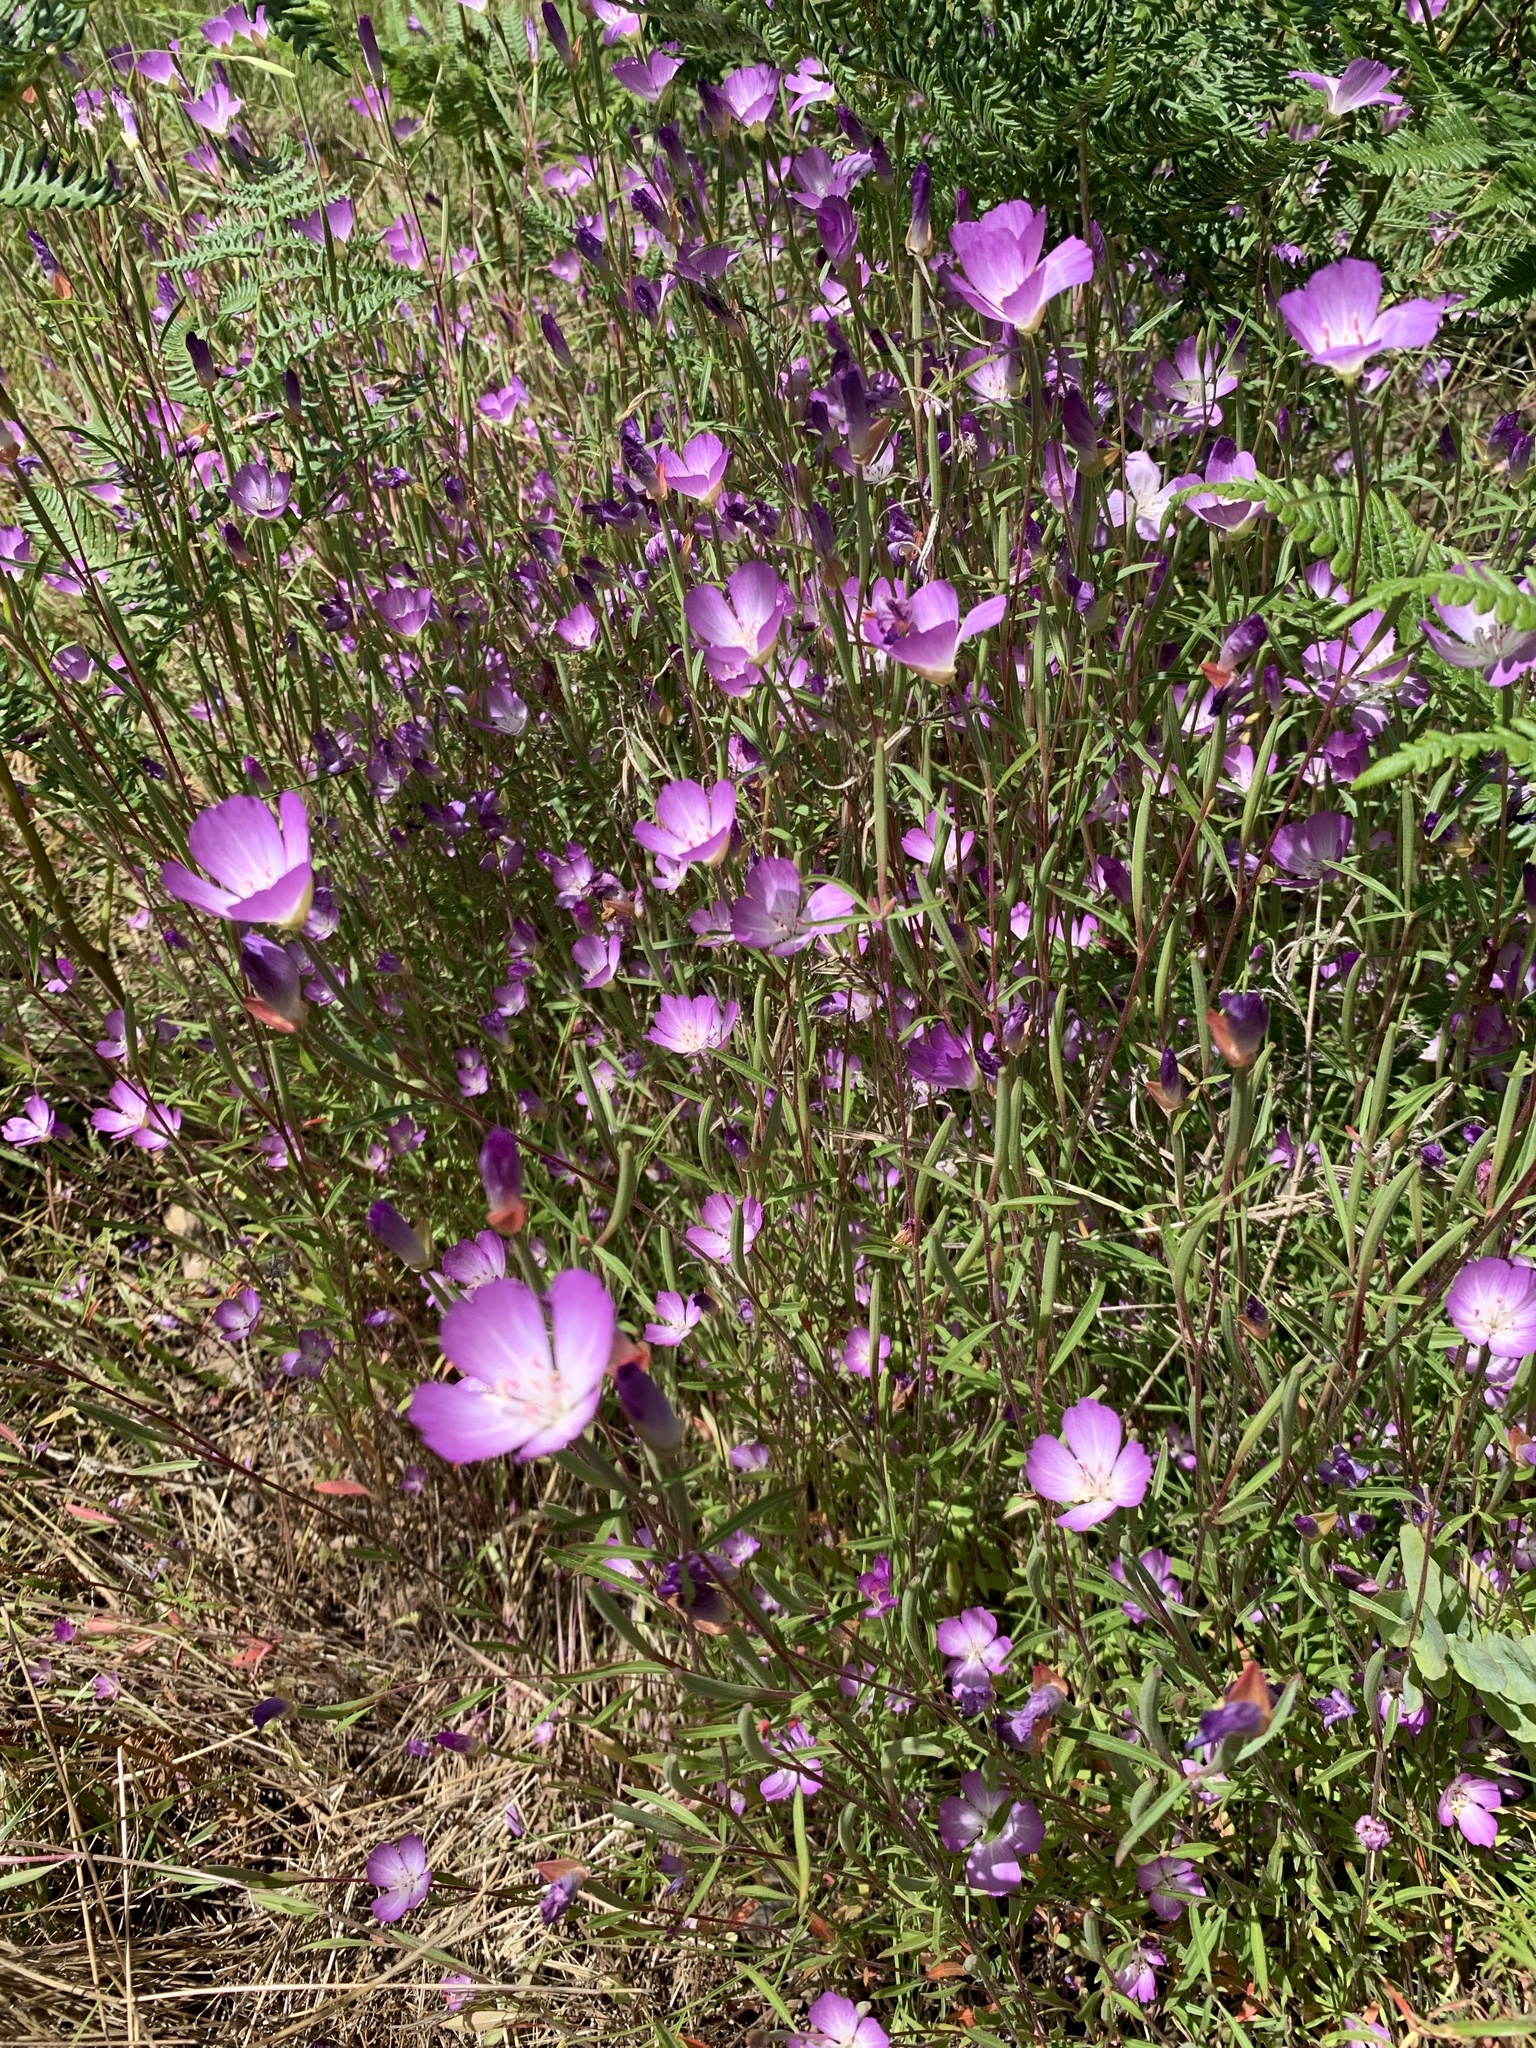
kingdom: Plantae
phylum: Tracheophyta
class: Magnoliopsida
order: Myrtales
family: Onagraceae
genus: Clarkia
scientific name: Clarkia amoena
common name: Godetia
